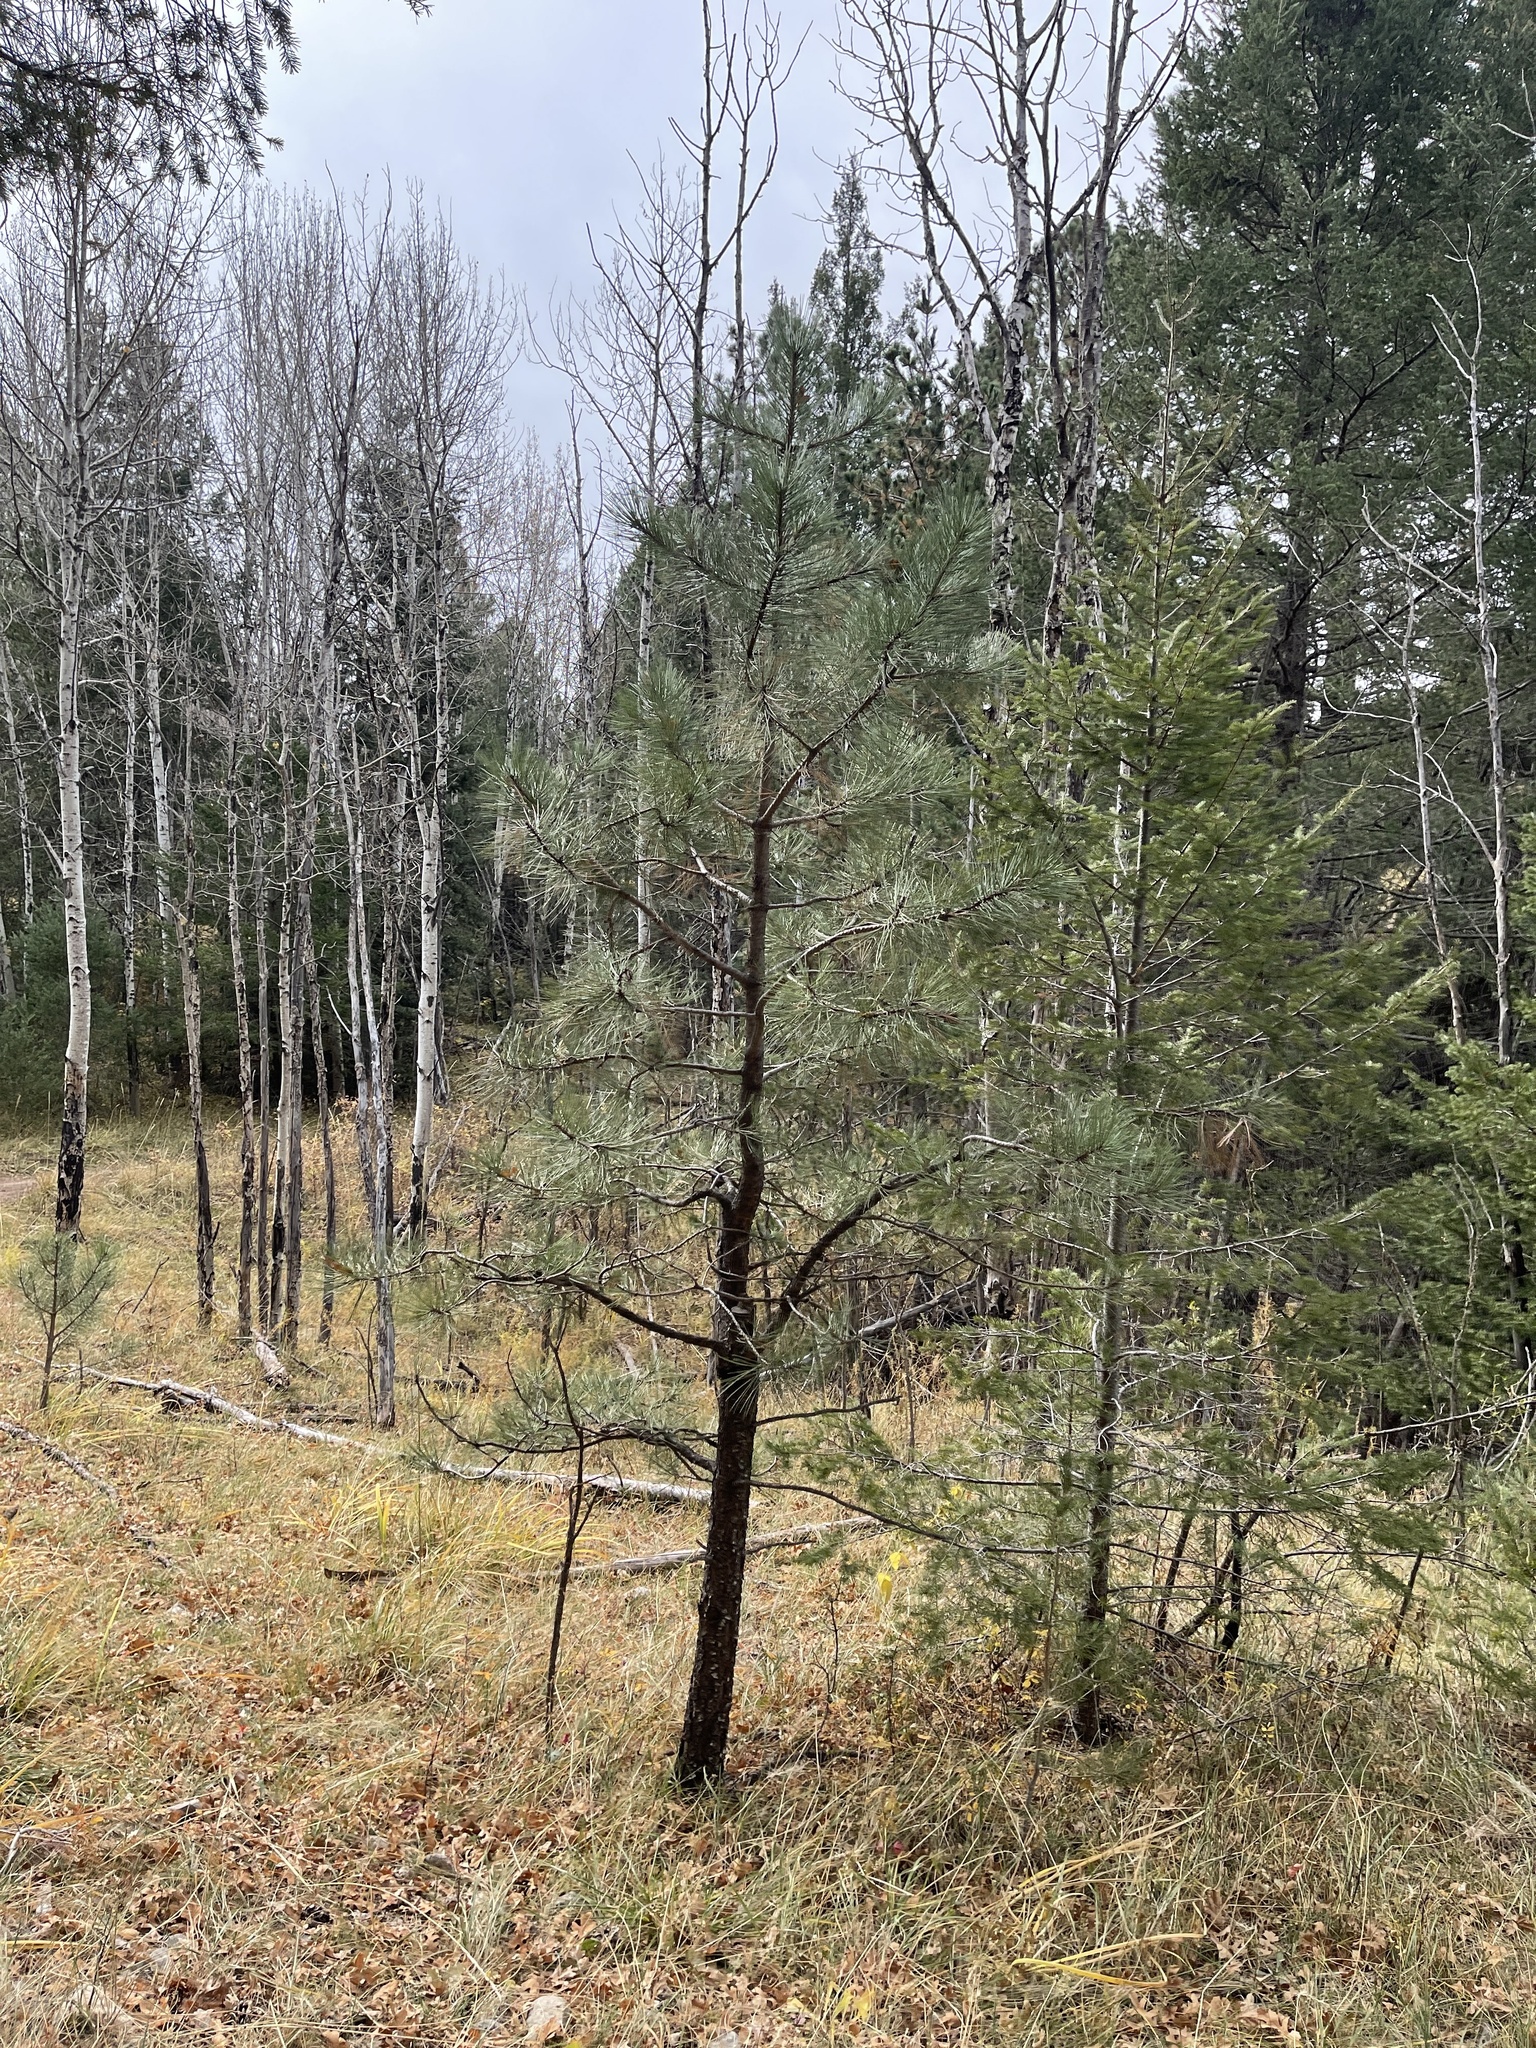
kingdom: Plantae
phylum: Tracheophyta
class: Pinopsida
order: Pinales
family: Pinaceae
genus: Pinus
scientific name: Pinus ponderosa
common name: Western yellow-pine
